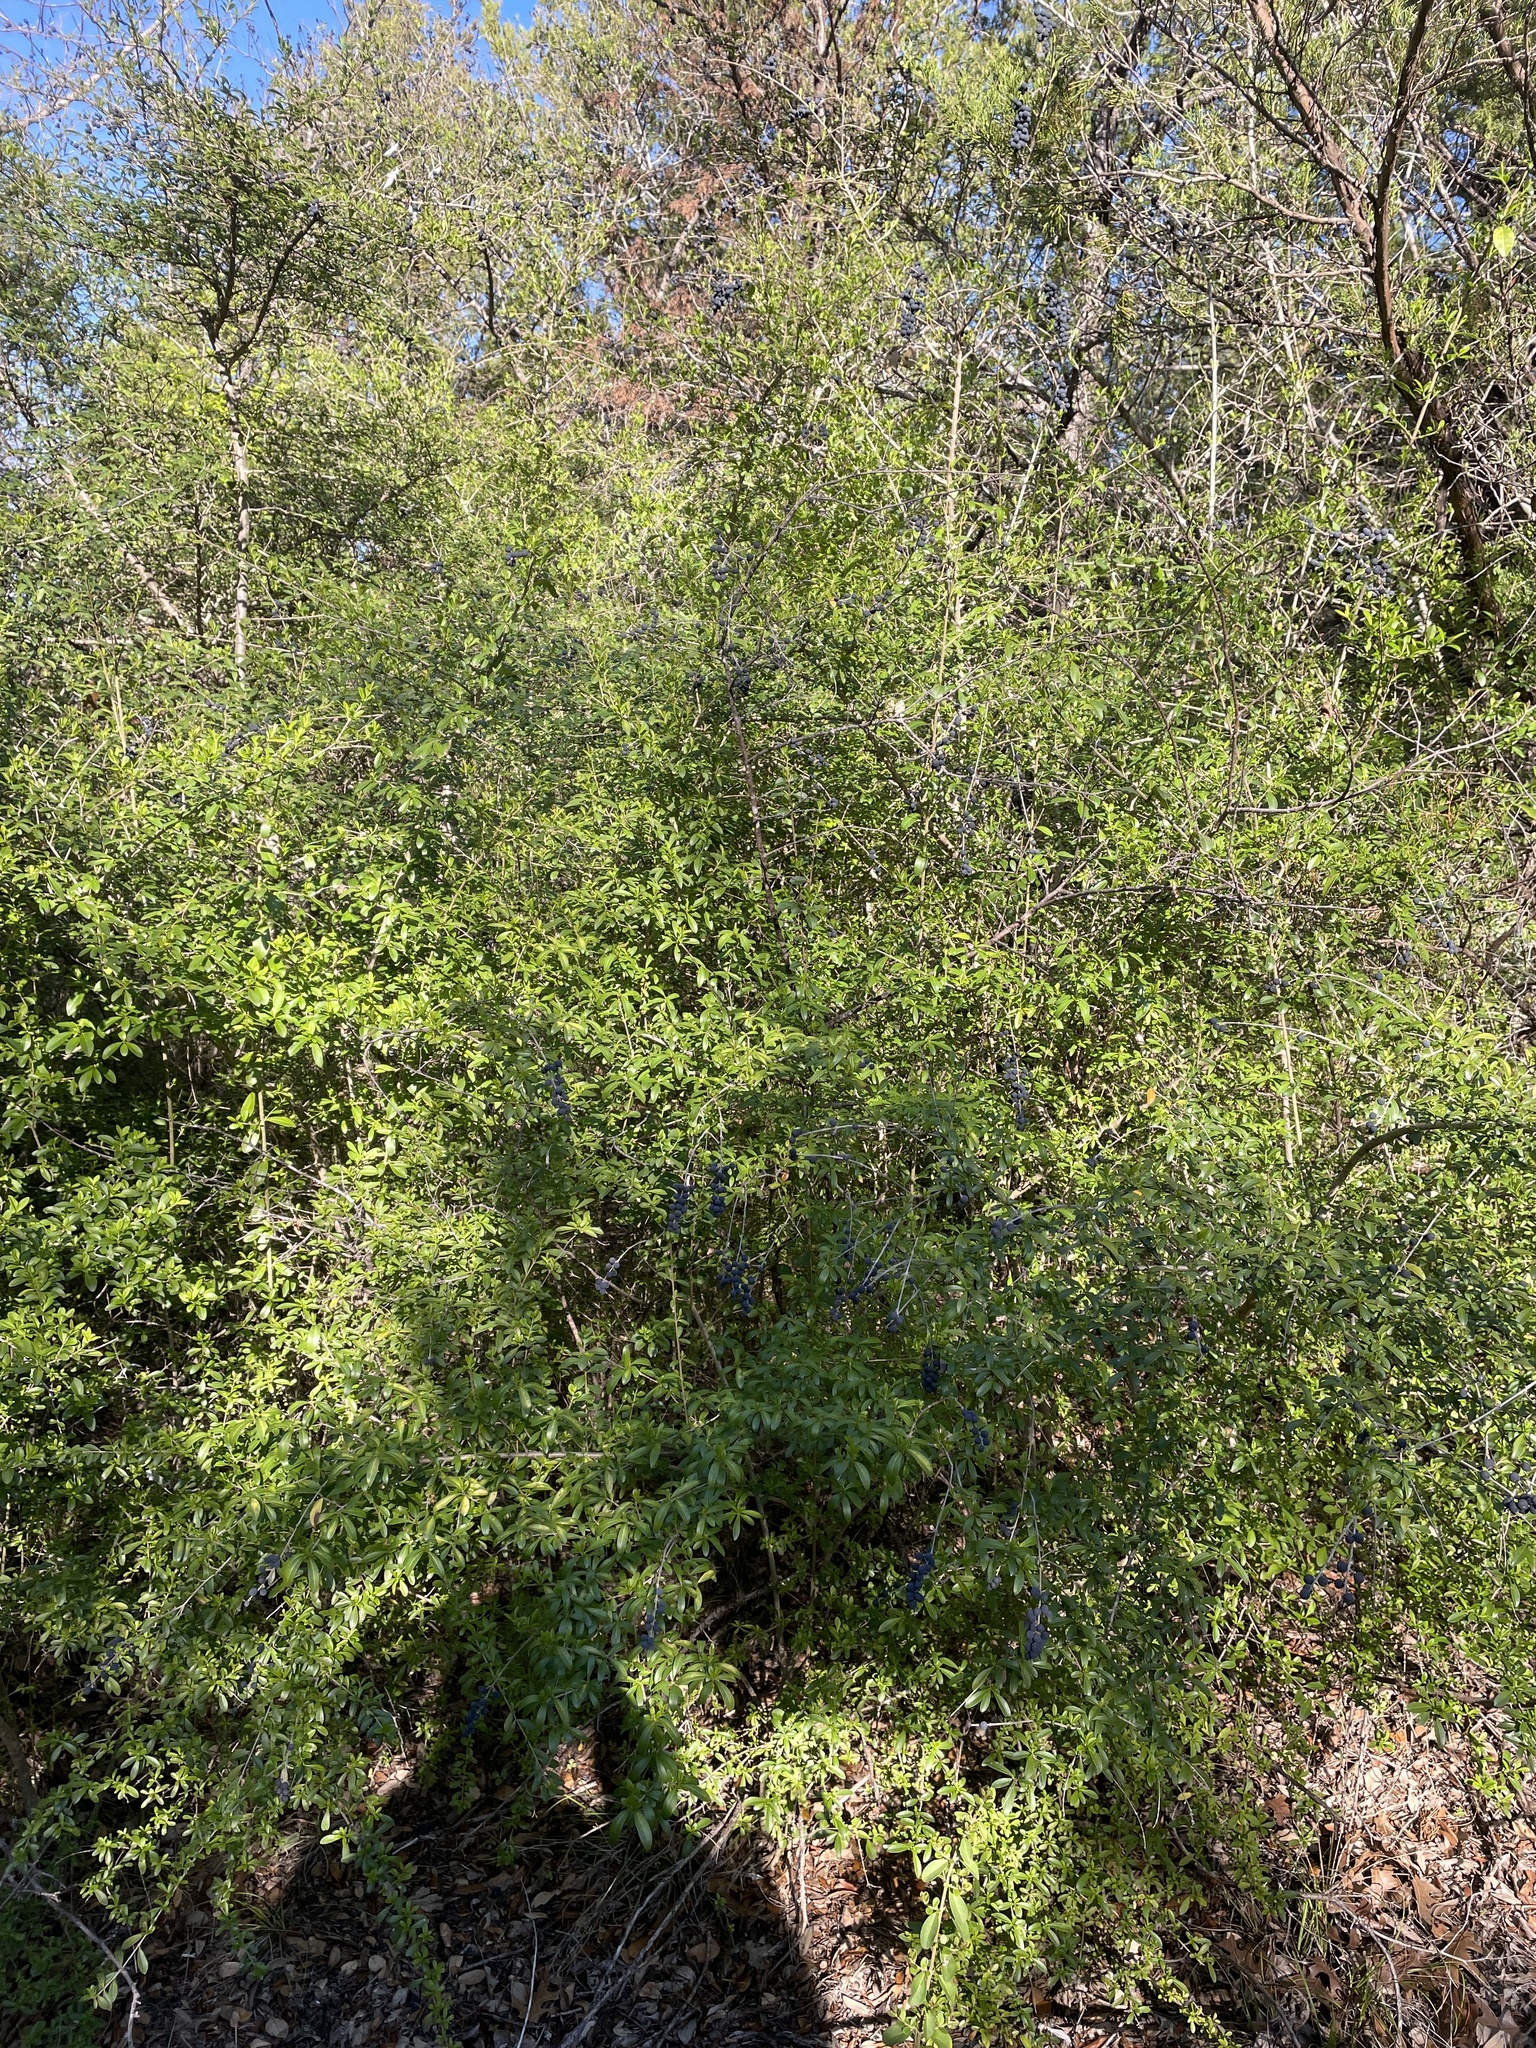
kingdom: Plantae
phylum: Tracheophyta
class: Magnoliopsida
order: Lamiales
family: Oleaceae
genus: Ligustrum
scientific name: Ligustrum quihoui
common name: Waxyleaf privet
